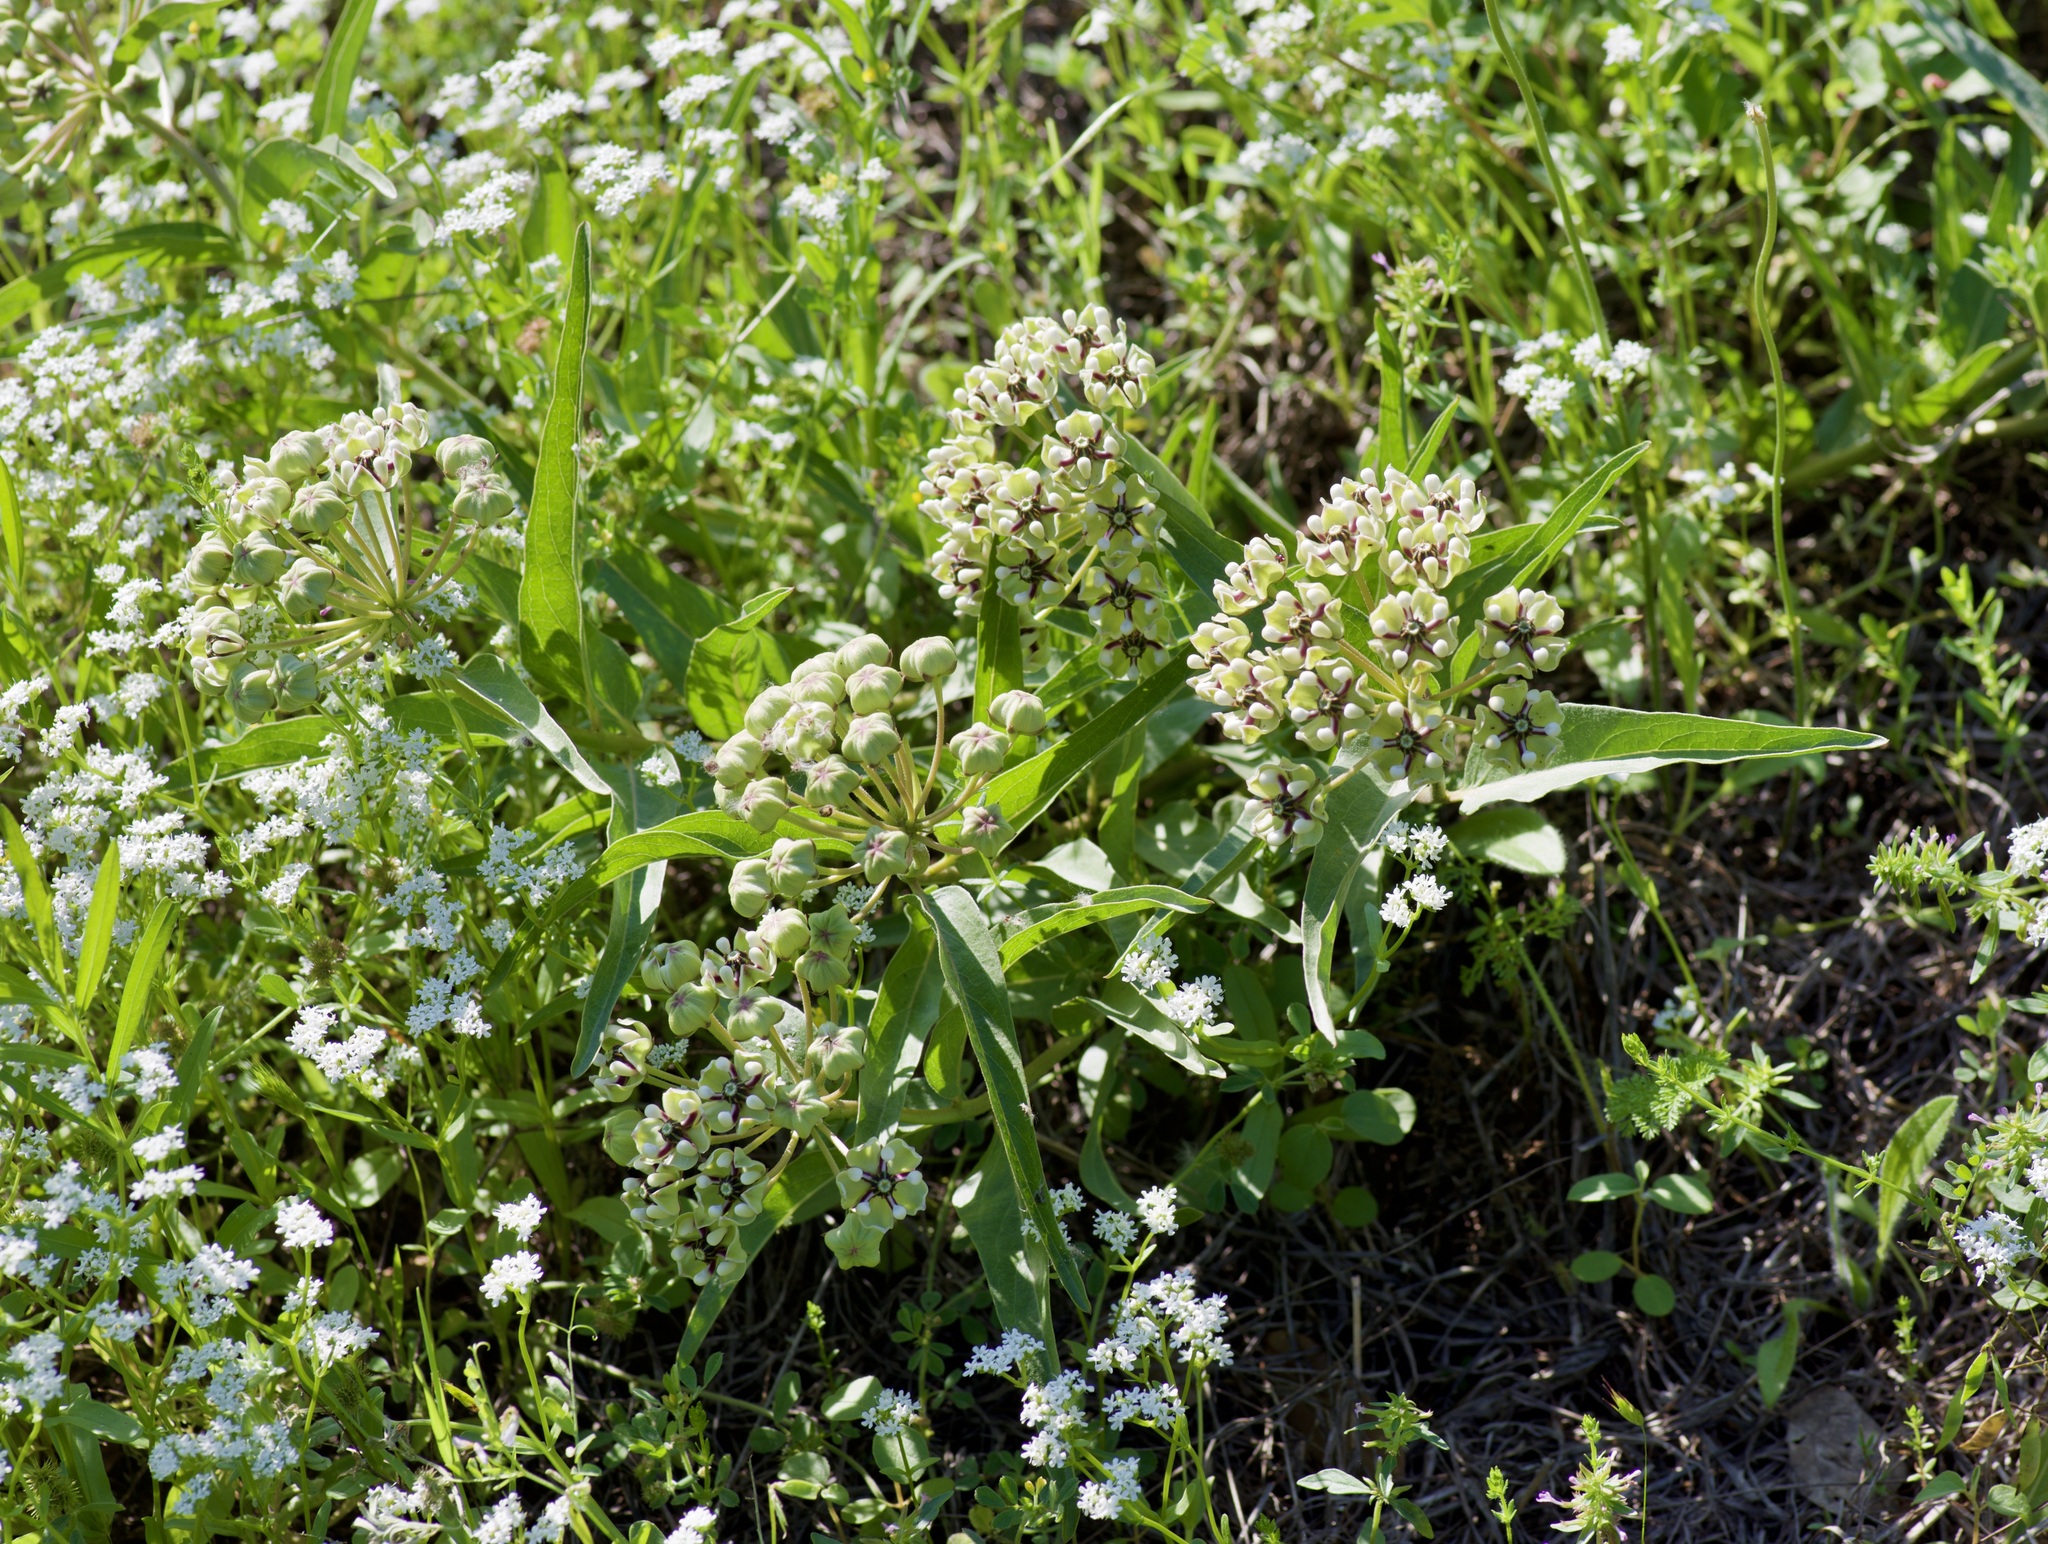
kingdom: Plantae
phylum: Tracheophyta
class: Magnoliopsida
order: Gentianales
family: Apocynaceae
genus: Asclepias
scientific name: Asclepias asperula
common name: Antelope horns
